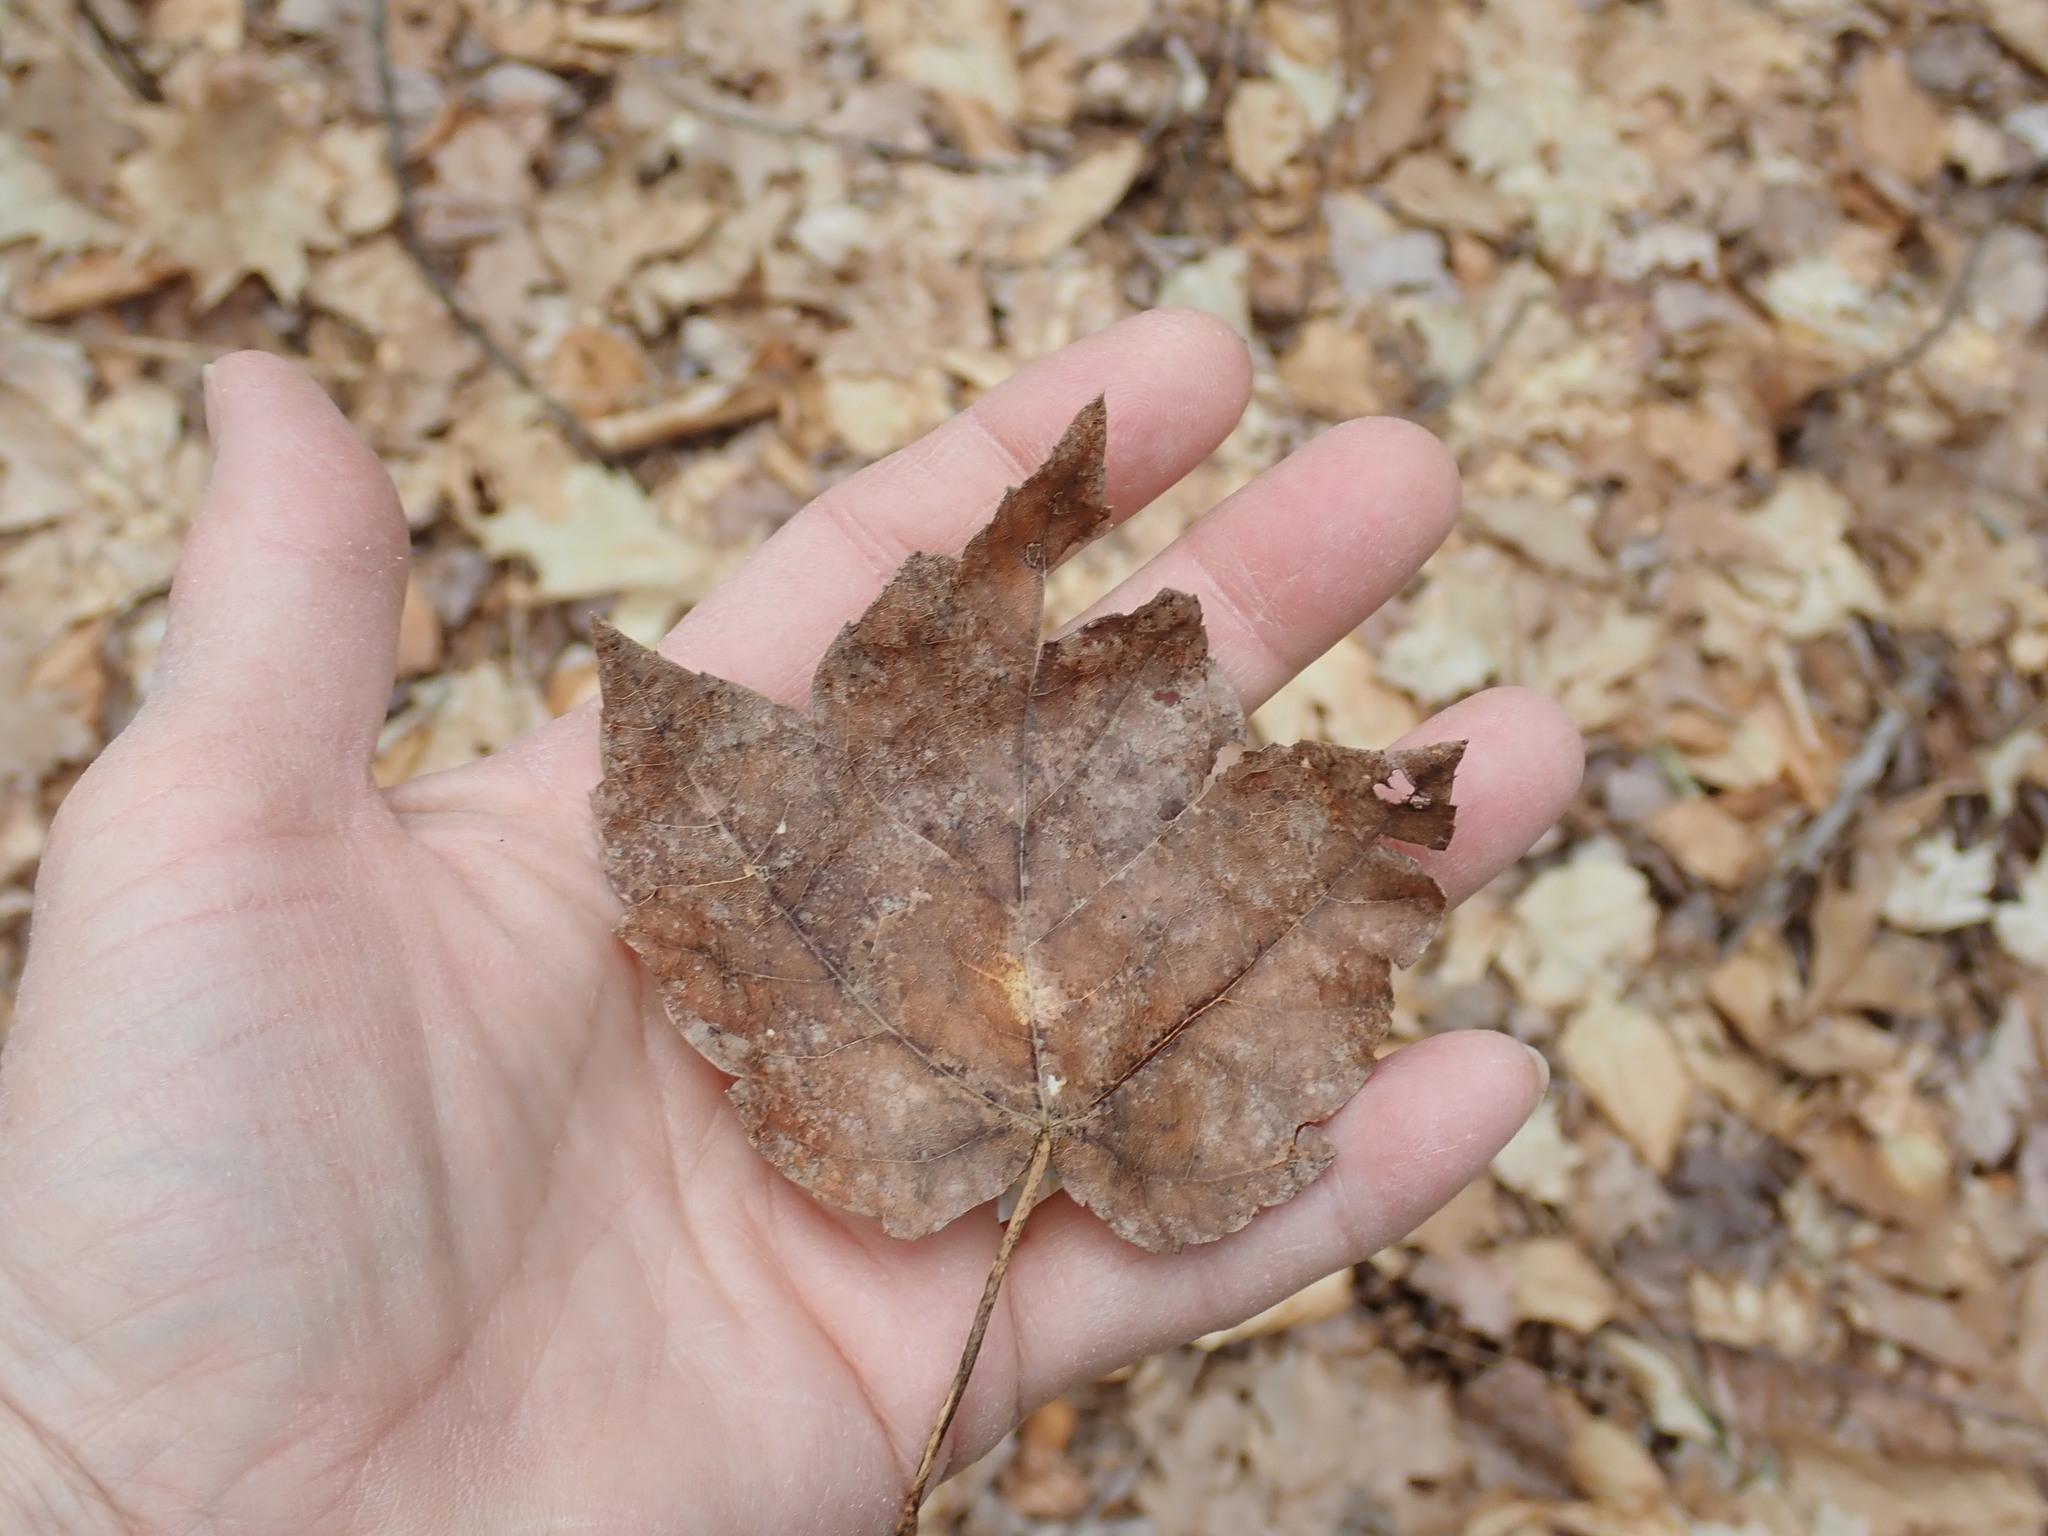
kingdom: Plantae
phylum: Tracheophyta
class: Magnoliopsida
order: Sapindales
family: Sapindaceae
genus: Acer
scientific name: Acer rubrum
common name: Red maple
